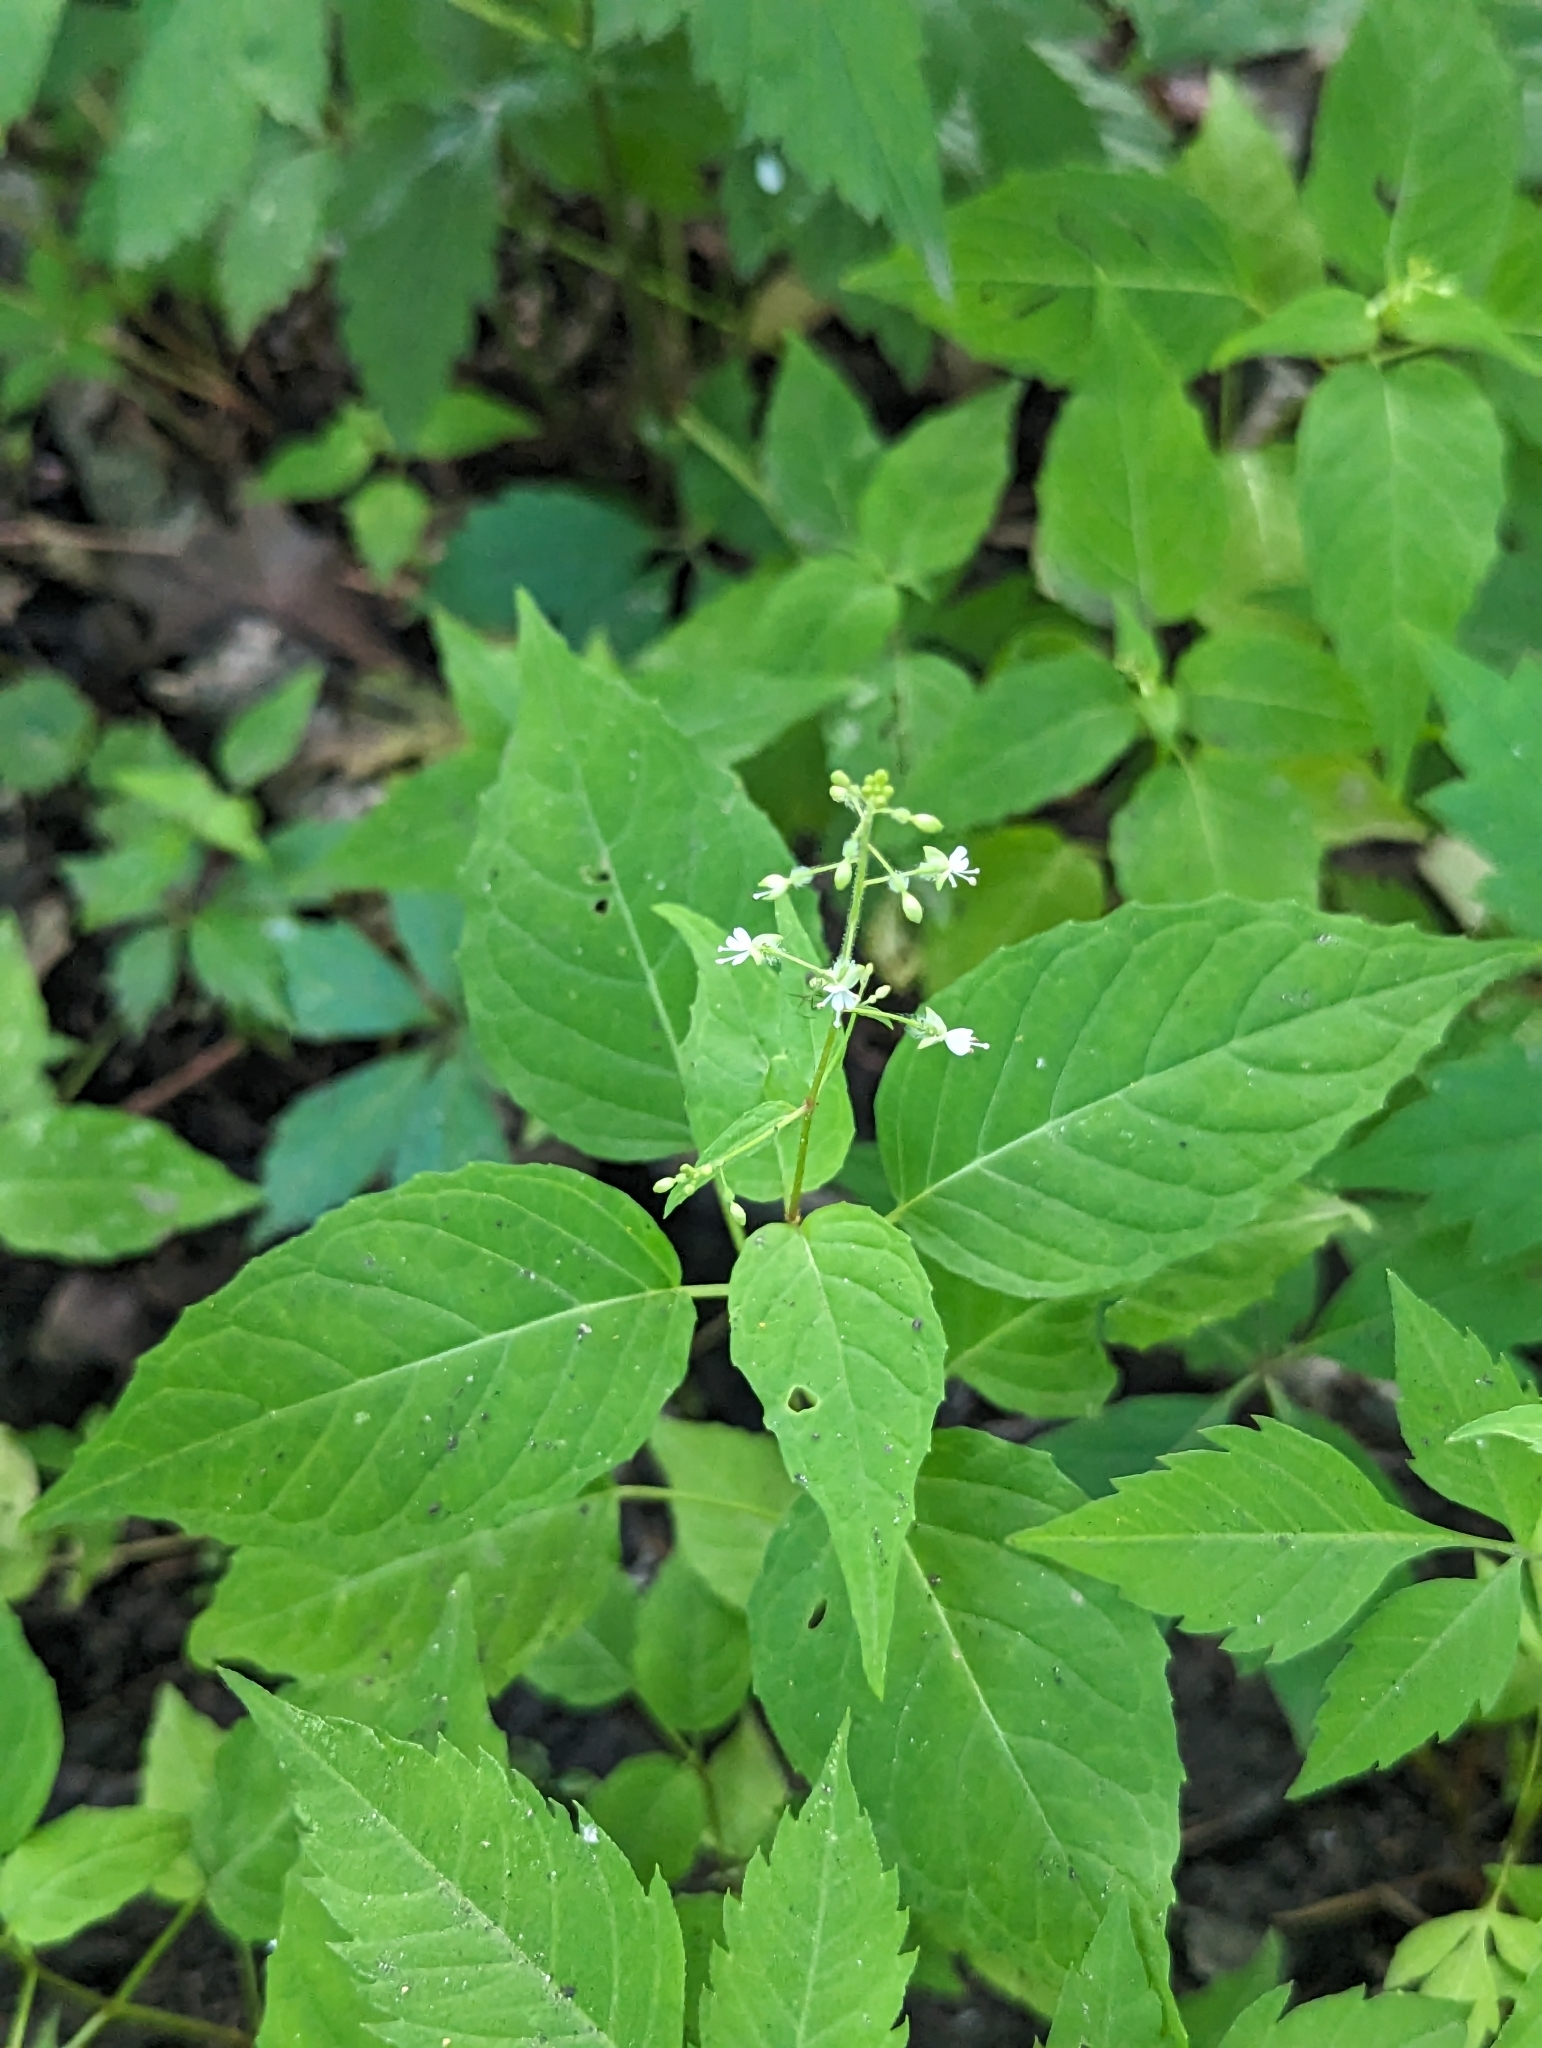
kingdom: Plantae
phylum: Tracheophyta
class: Magnoliopsida
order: Myrtales
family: Onagraceae
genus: Circaea
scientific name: Circaea canadensis
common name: Broad-leaved enchanter's nightshade
